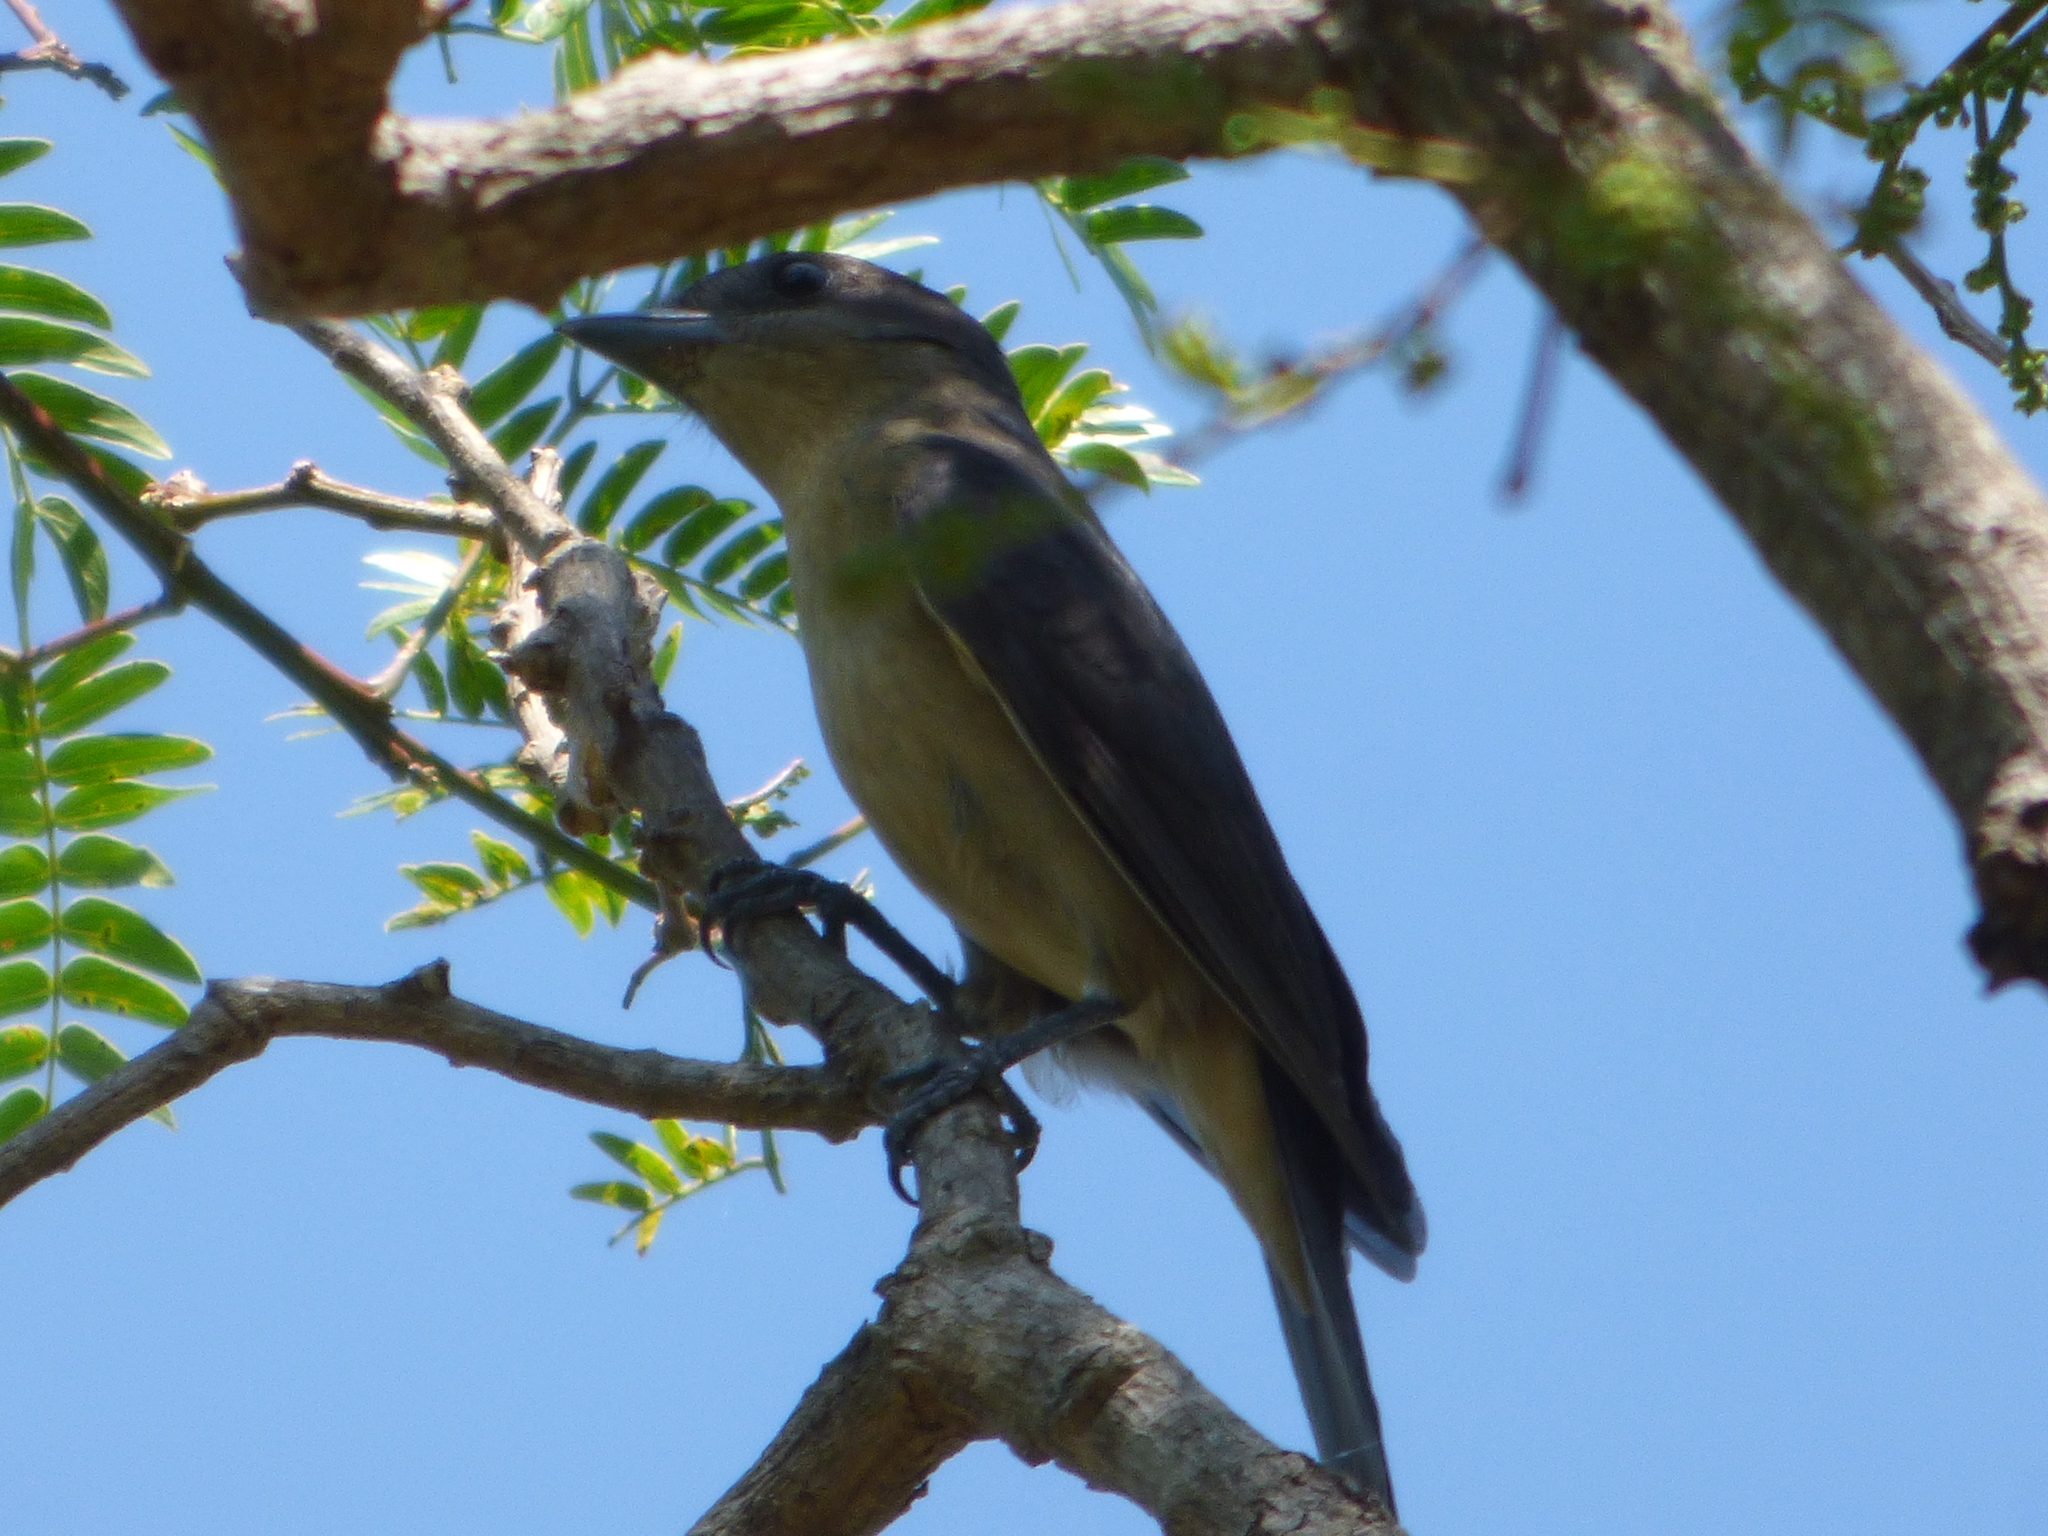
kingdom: Animalia
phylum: Chordata
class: Aves
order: Passeriformes
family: Cotingidae
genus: Pachyramphus
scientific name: Pachyramphus validus
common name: Crested becard
